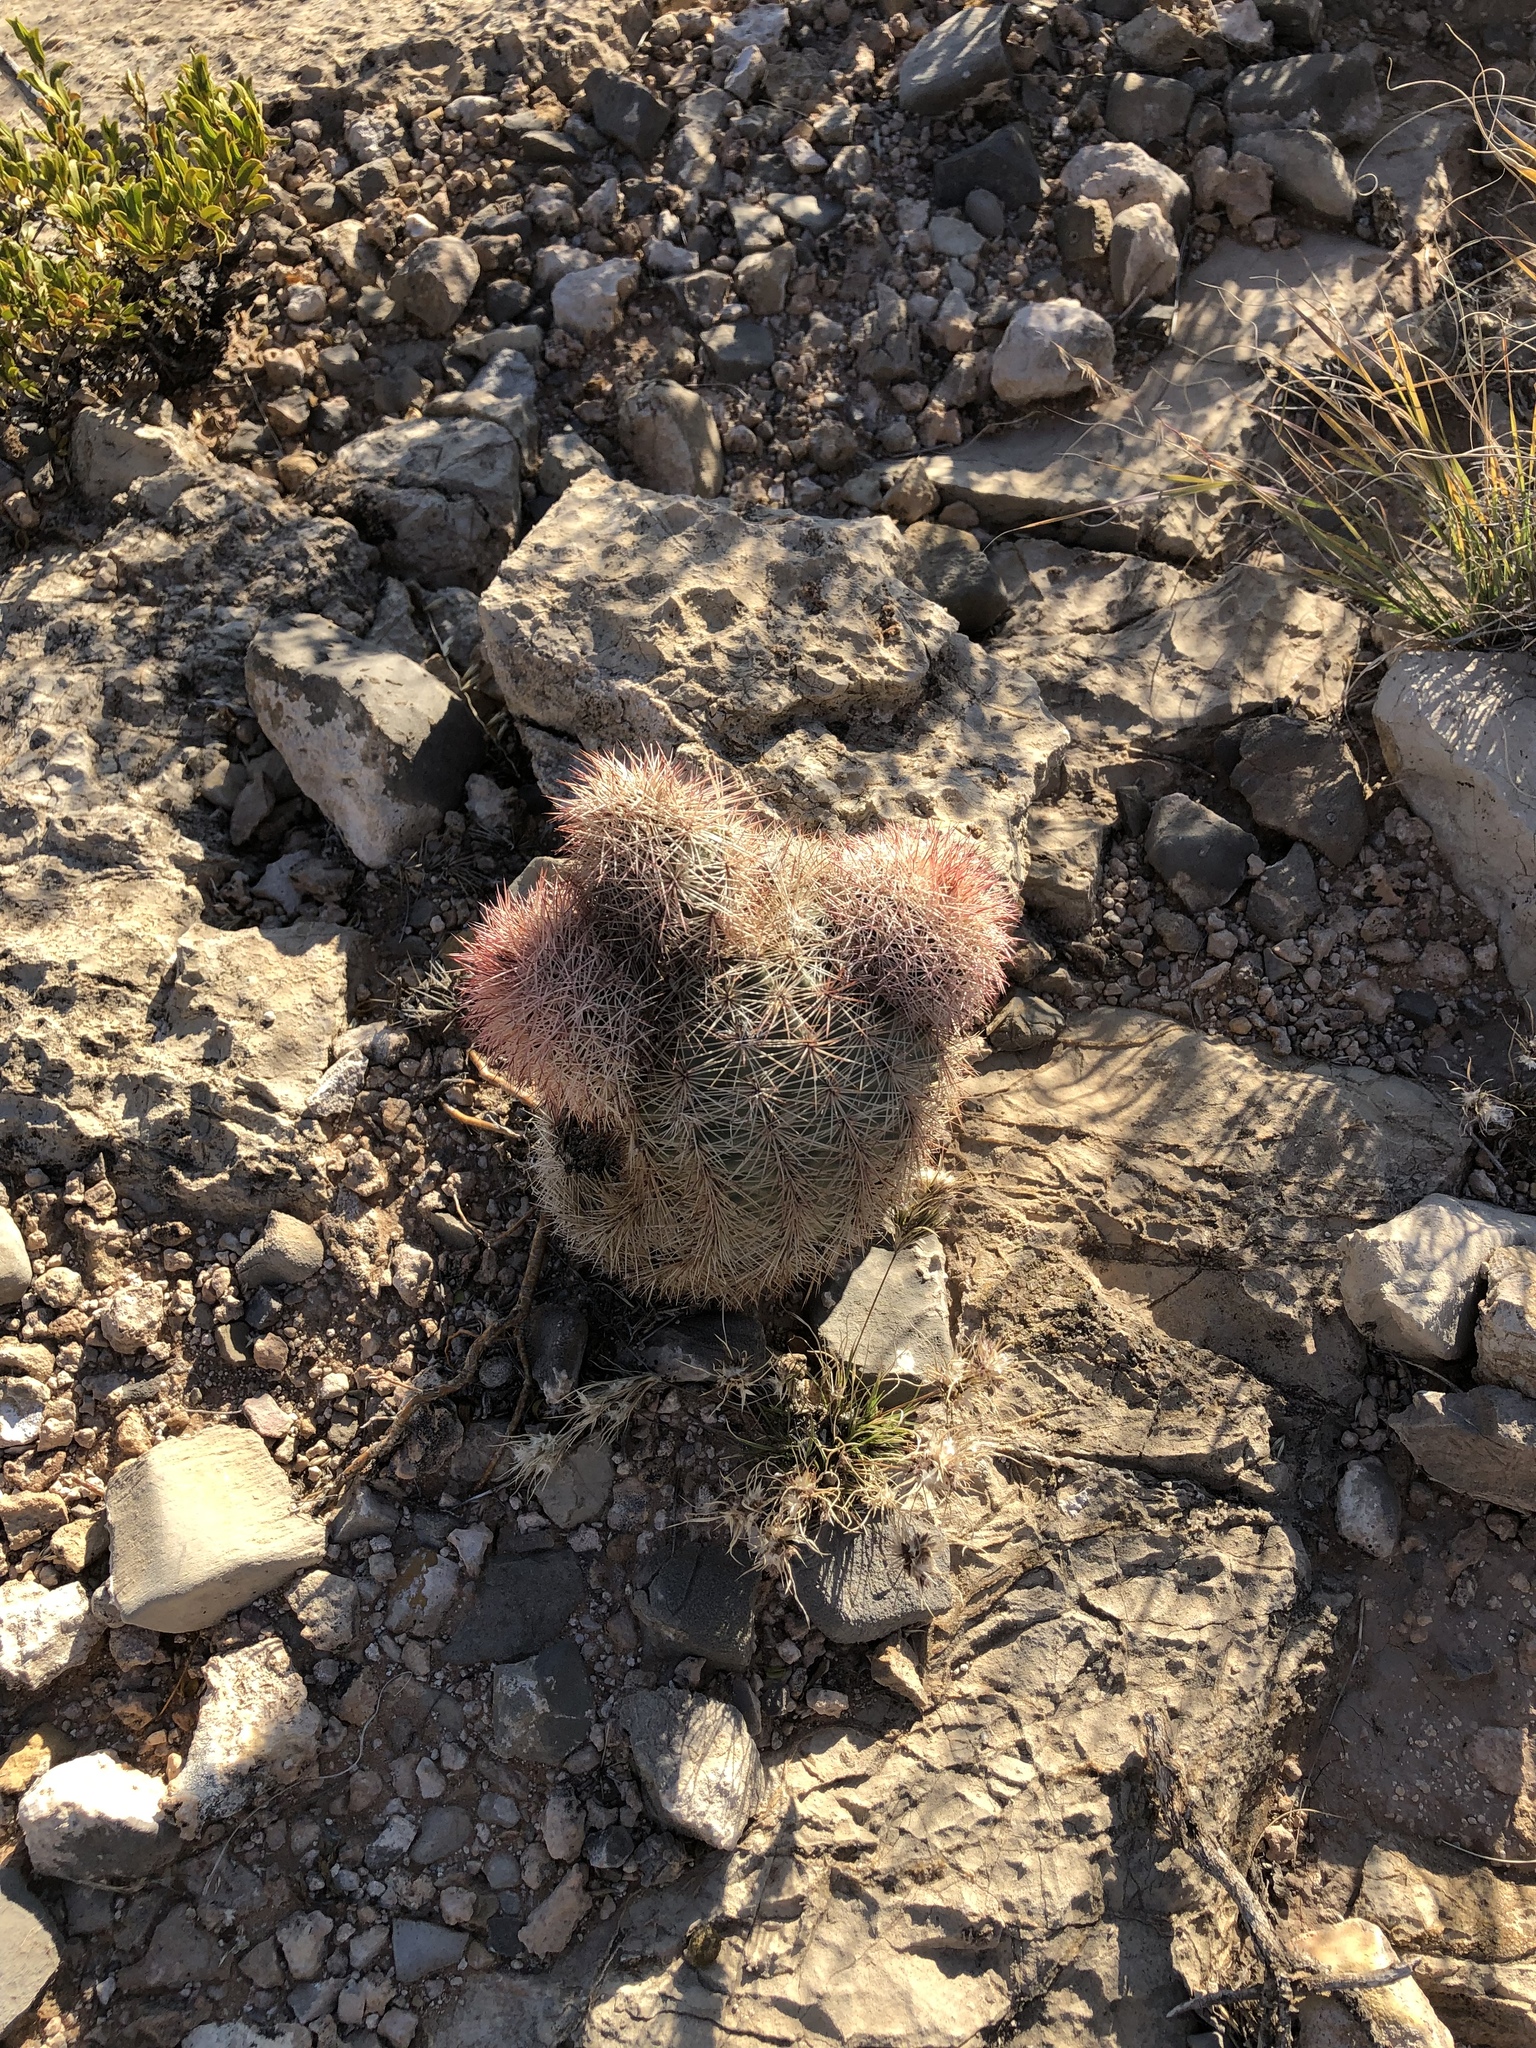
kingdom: Plantae
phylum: Tracheophyta
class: Magnoliopsida
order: Caryophyllales
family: Cactaceae
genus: Echinocereus
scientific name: Echinocereus dasyacanthus
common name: Spiny hedgehog cactus
